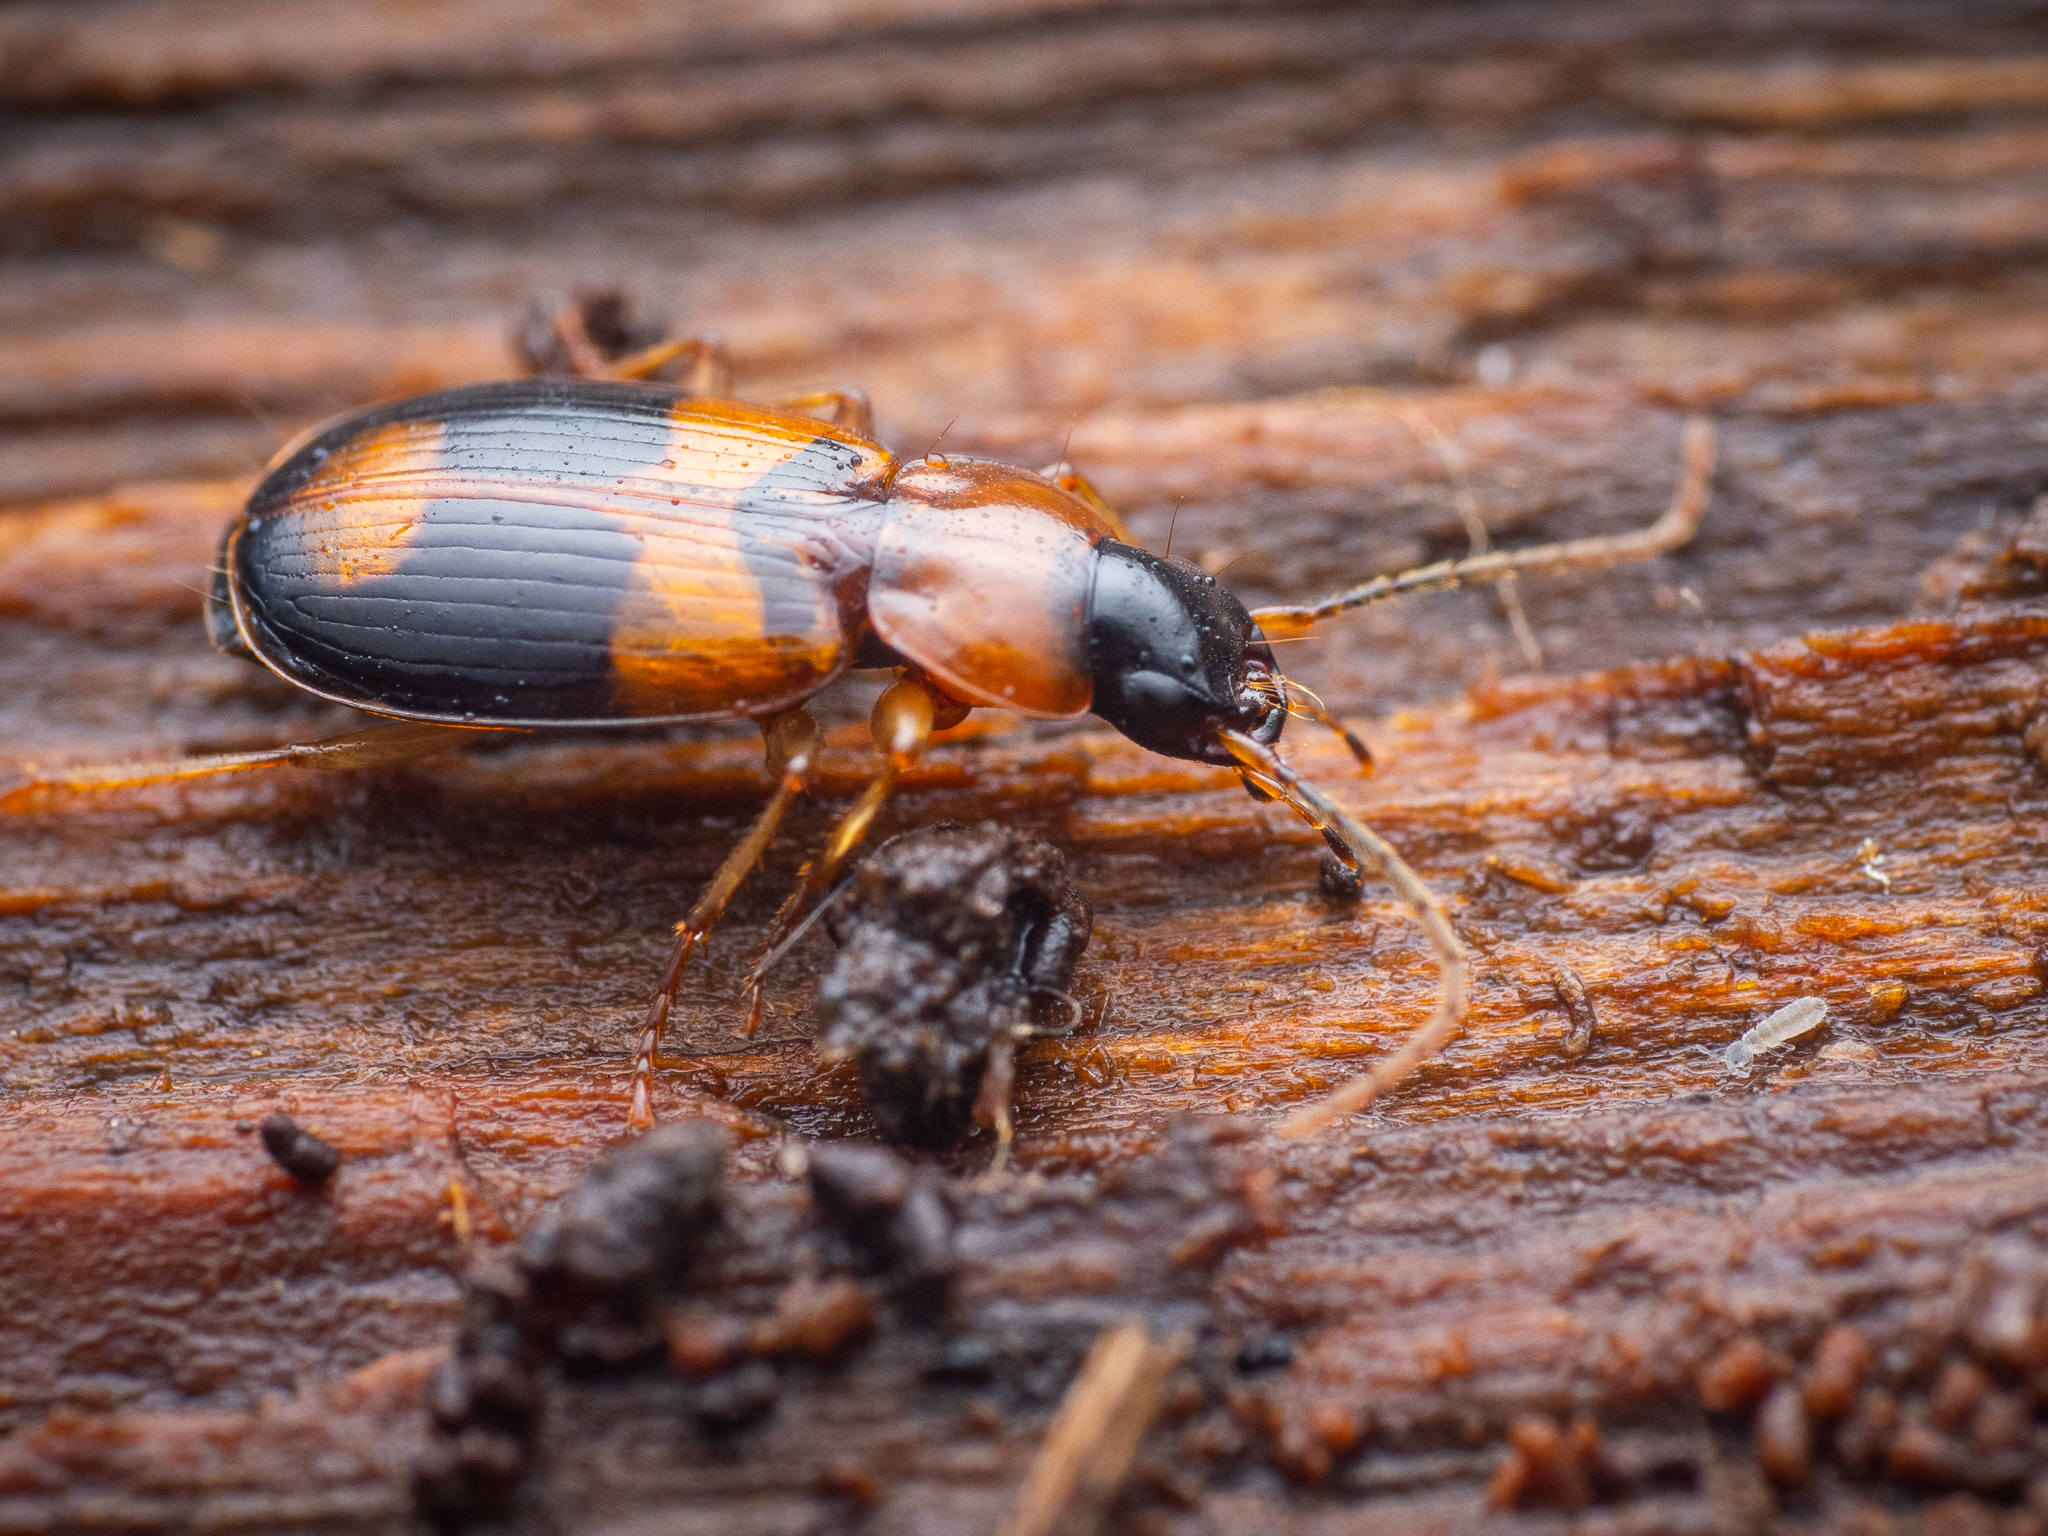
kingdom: Animalia
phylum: Arthropoda
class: Insecta
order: Coleoptera
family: Carabidae
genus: Badister
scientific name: Badister lacertosus
